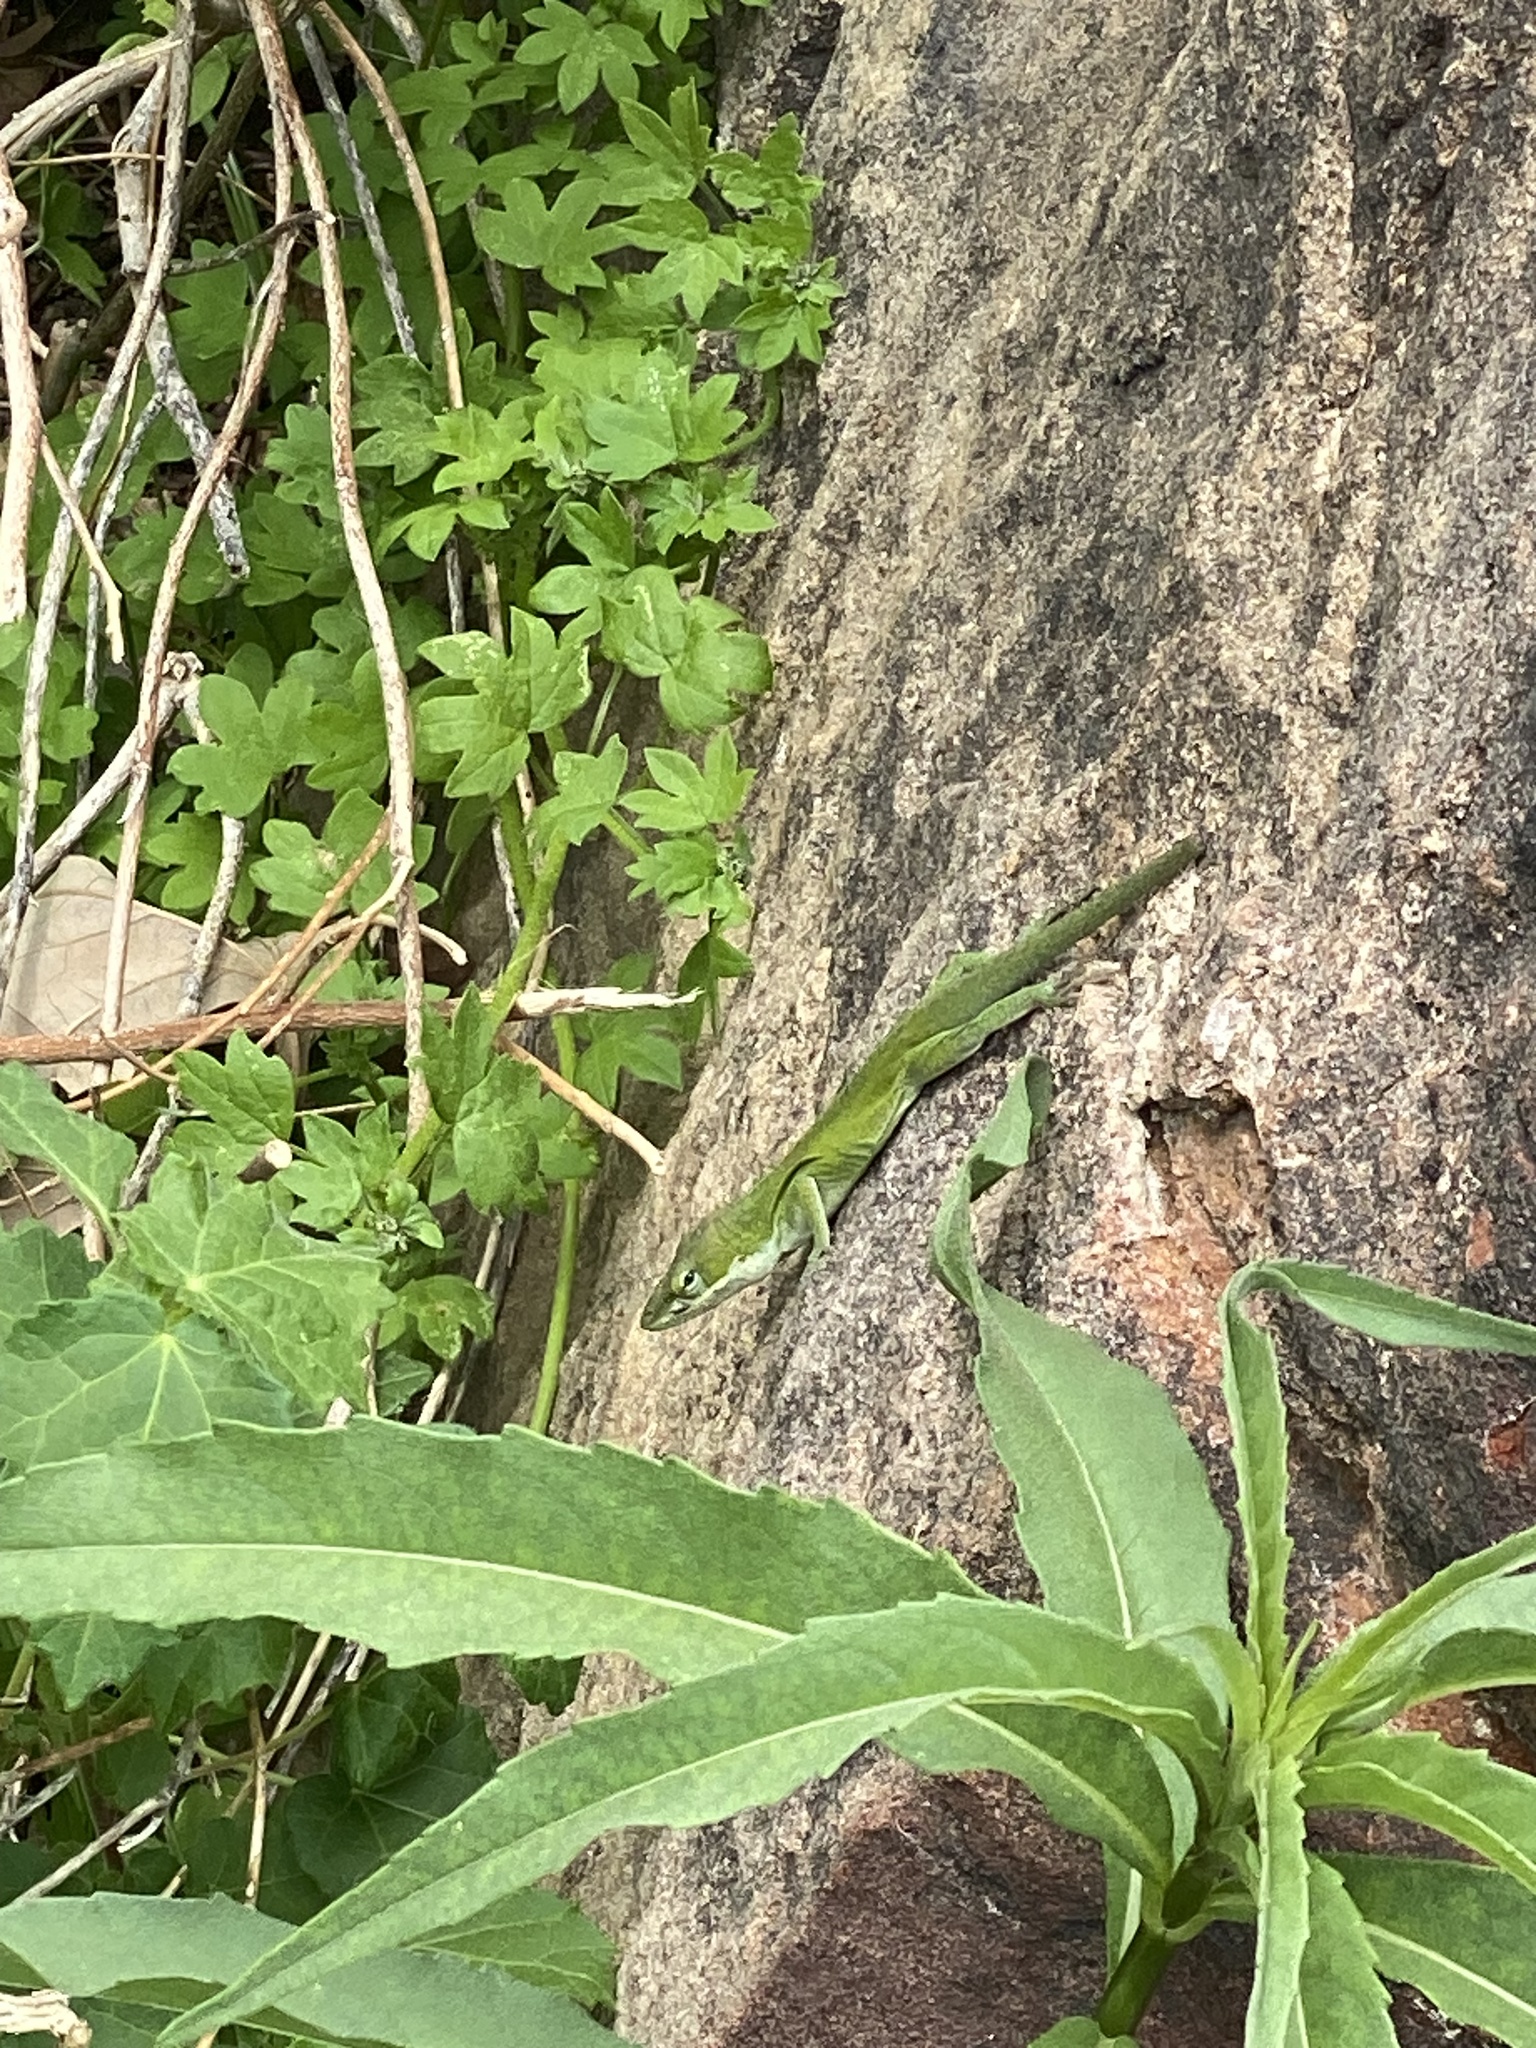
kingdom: Animalia
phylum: Chordata
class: Squamata
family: Dactyloidae
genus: Anolis
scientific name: Anolis carolinensis
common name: Green anole
